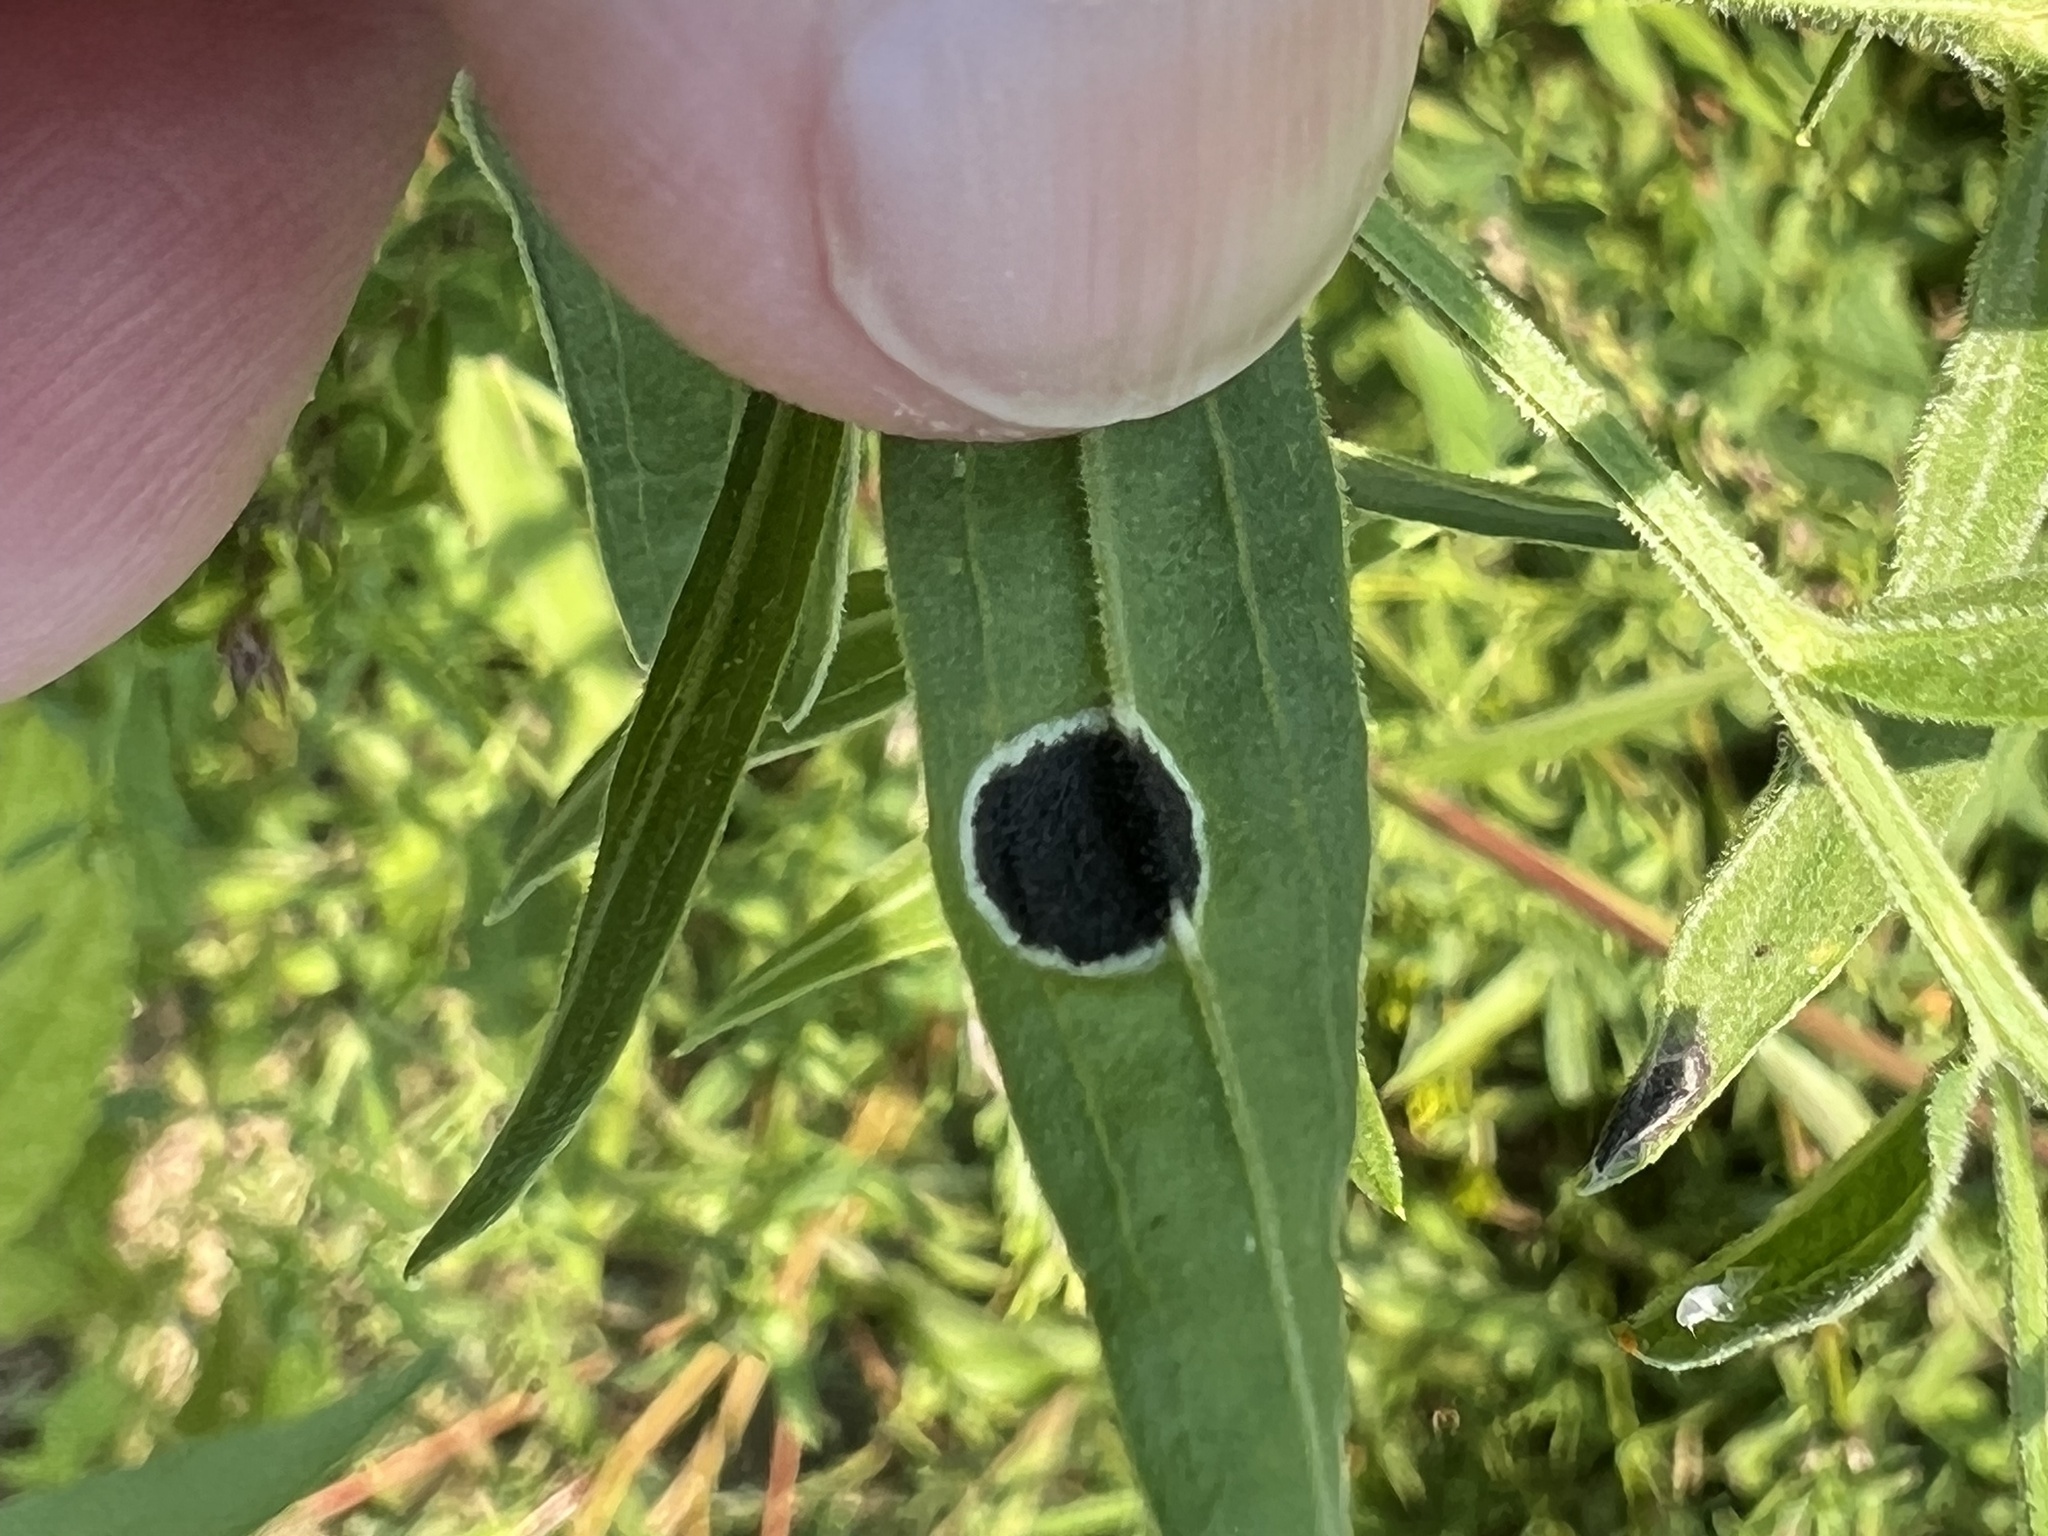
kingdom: Animalia
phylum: Arthropoda
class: Insecta
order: Diptera
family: Cecidomyiidae
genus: Asteromyia
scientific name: Asteromyia euthamiae
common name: Euthamia leaf gall midge
